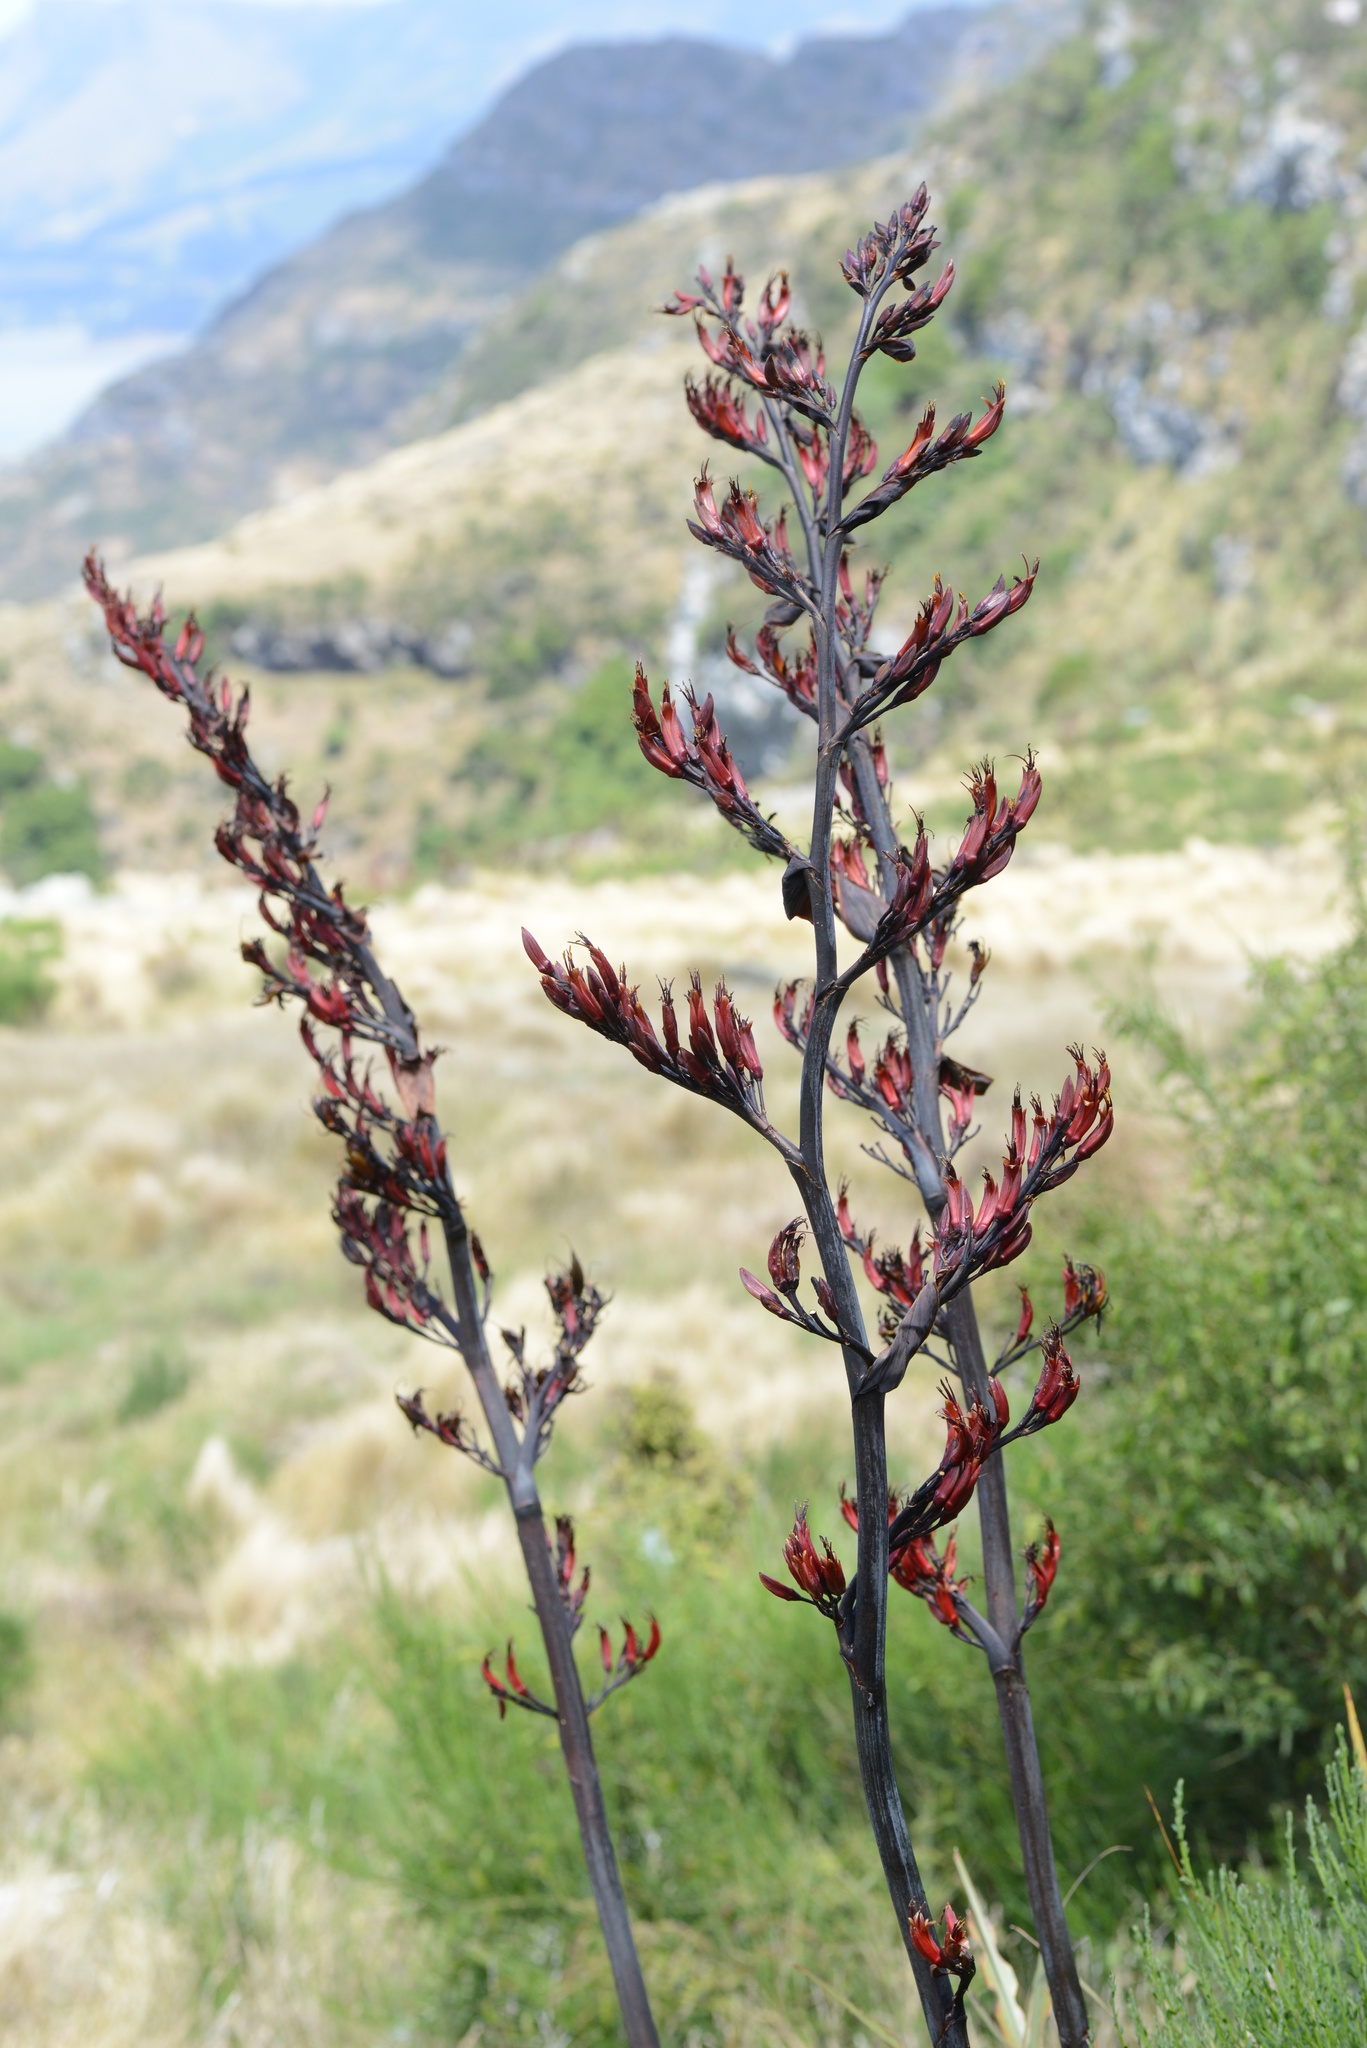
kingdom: Plantae
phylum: Tracheophyta
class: Liliopsida
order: Asparagales
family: Asphodelaceae
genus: Phormium
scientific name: Phormium tenax
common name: New zealand flax
